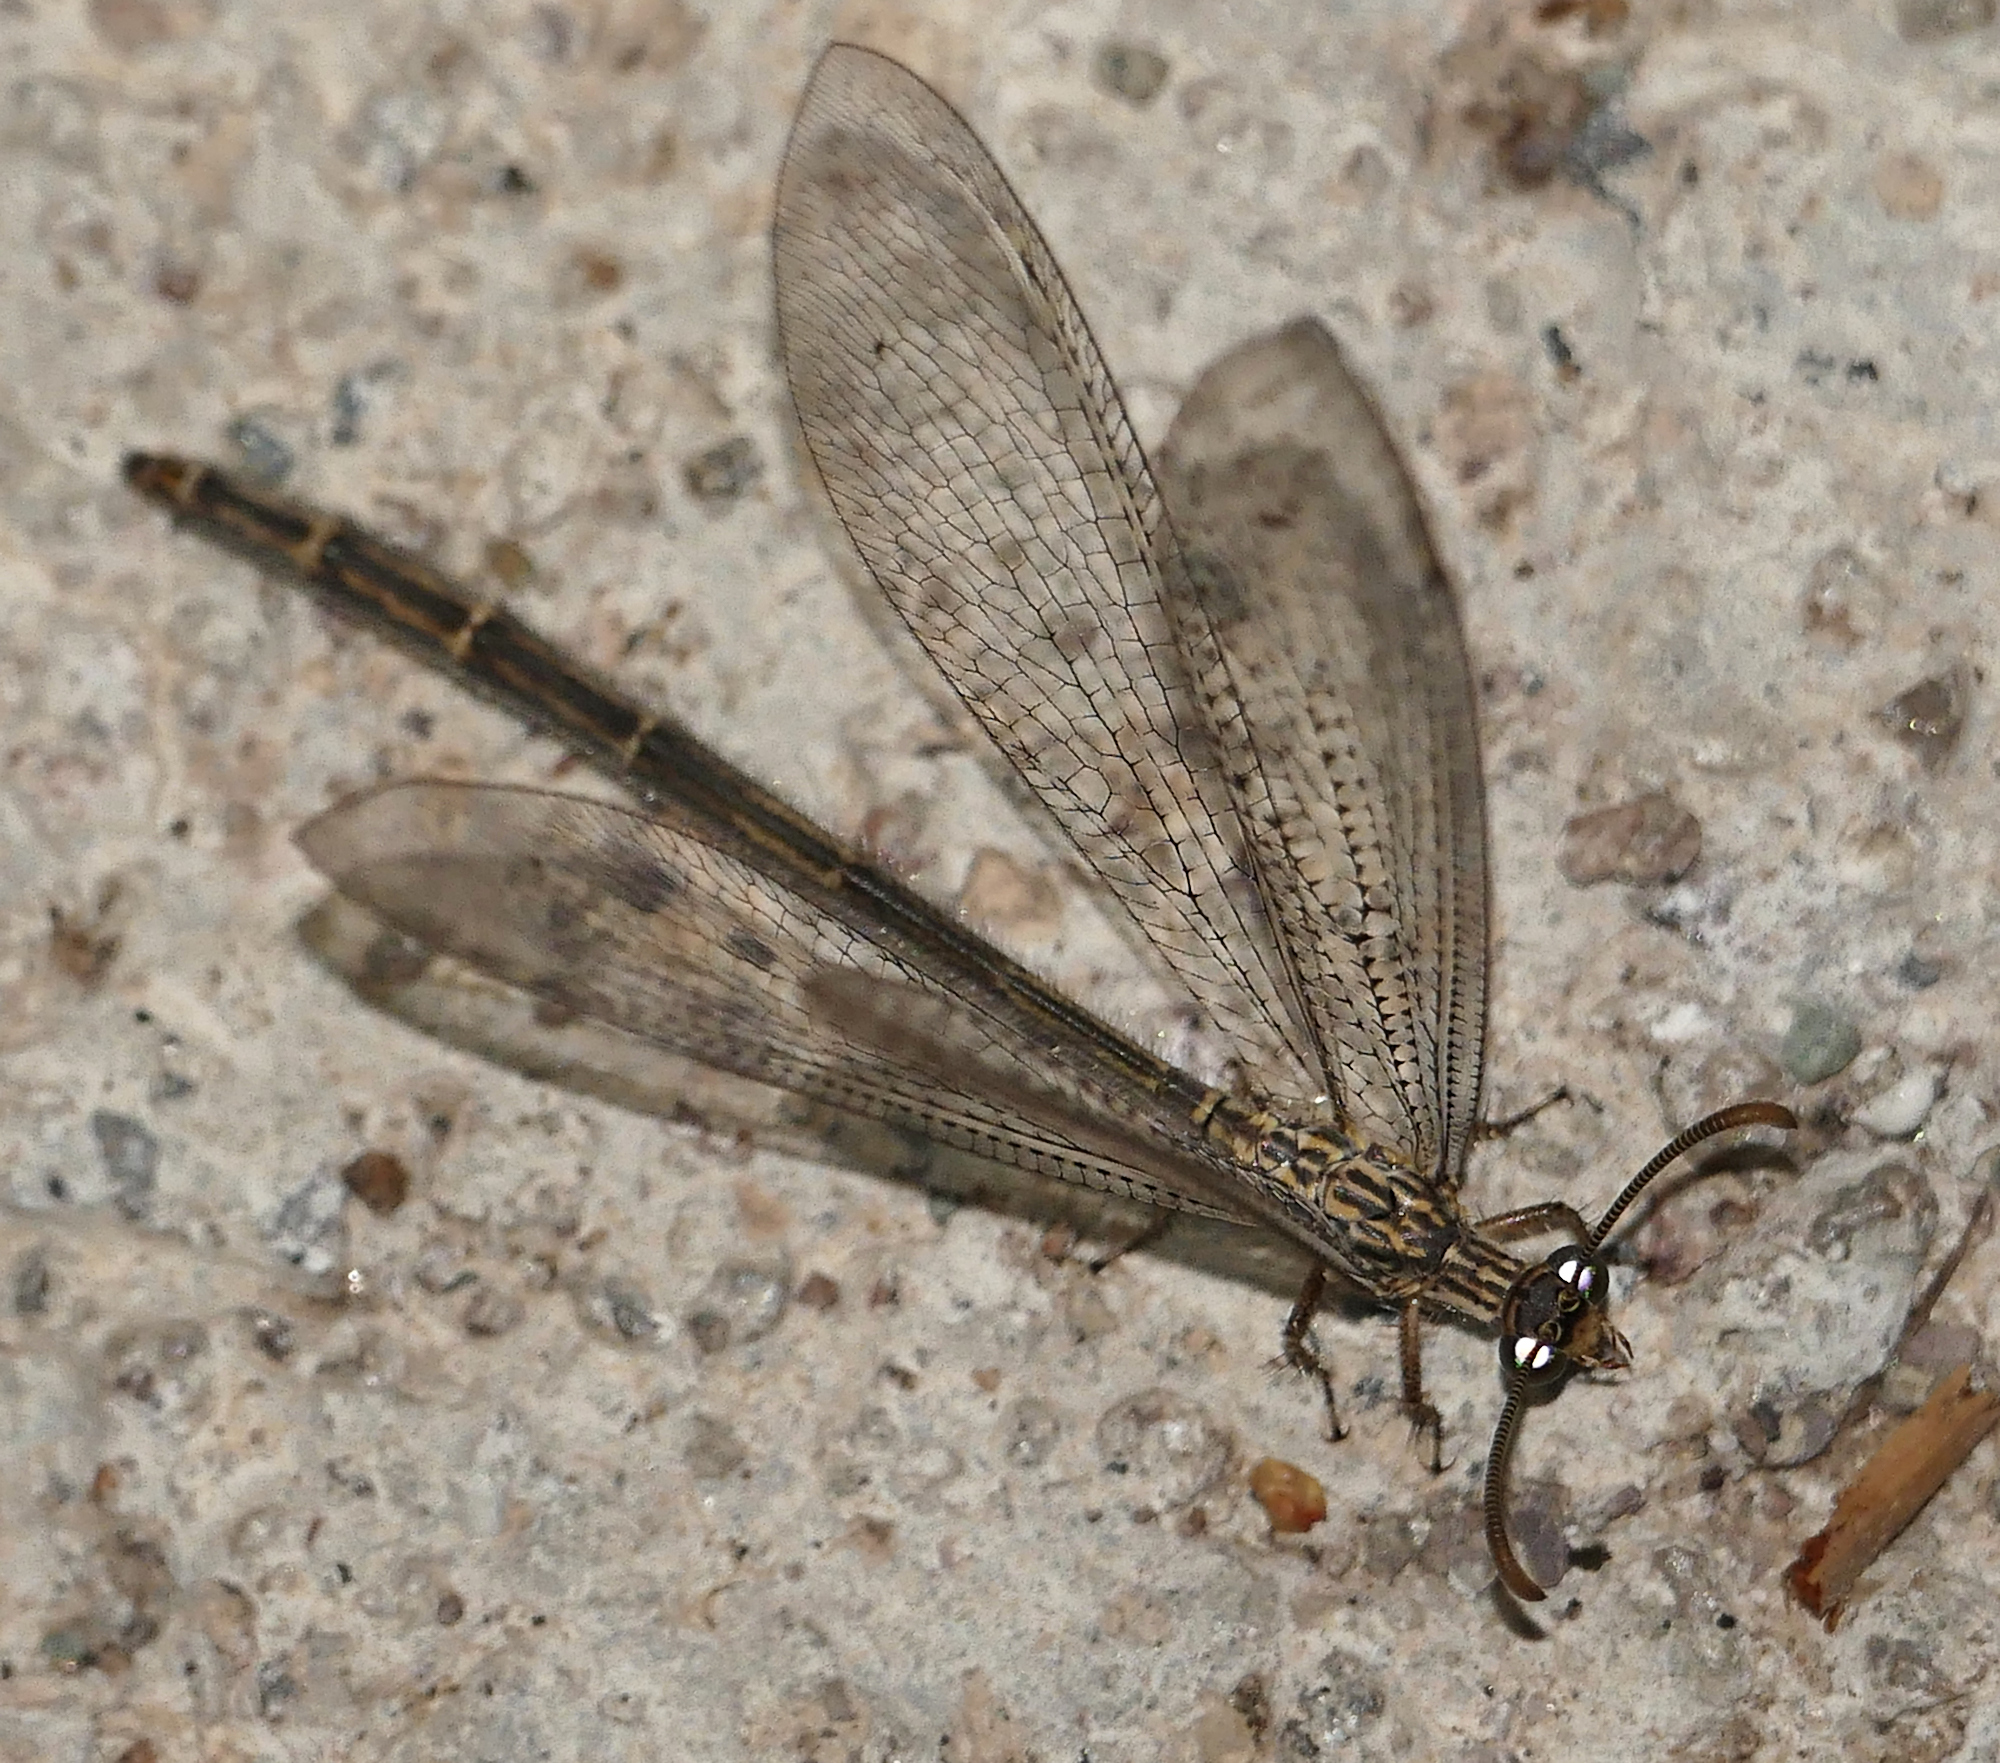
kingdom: Animalia
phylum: Arthropoda
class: Insecta
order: Neuroptera
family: Myrmeleontidae
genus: Brachynemurus
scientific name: Brachynemurus hubbardii
